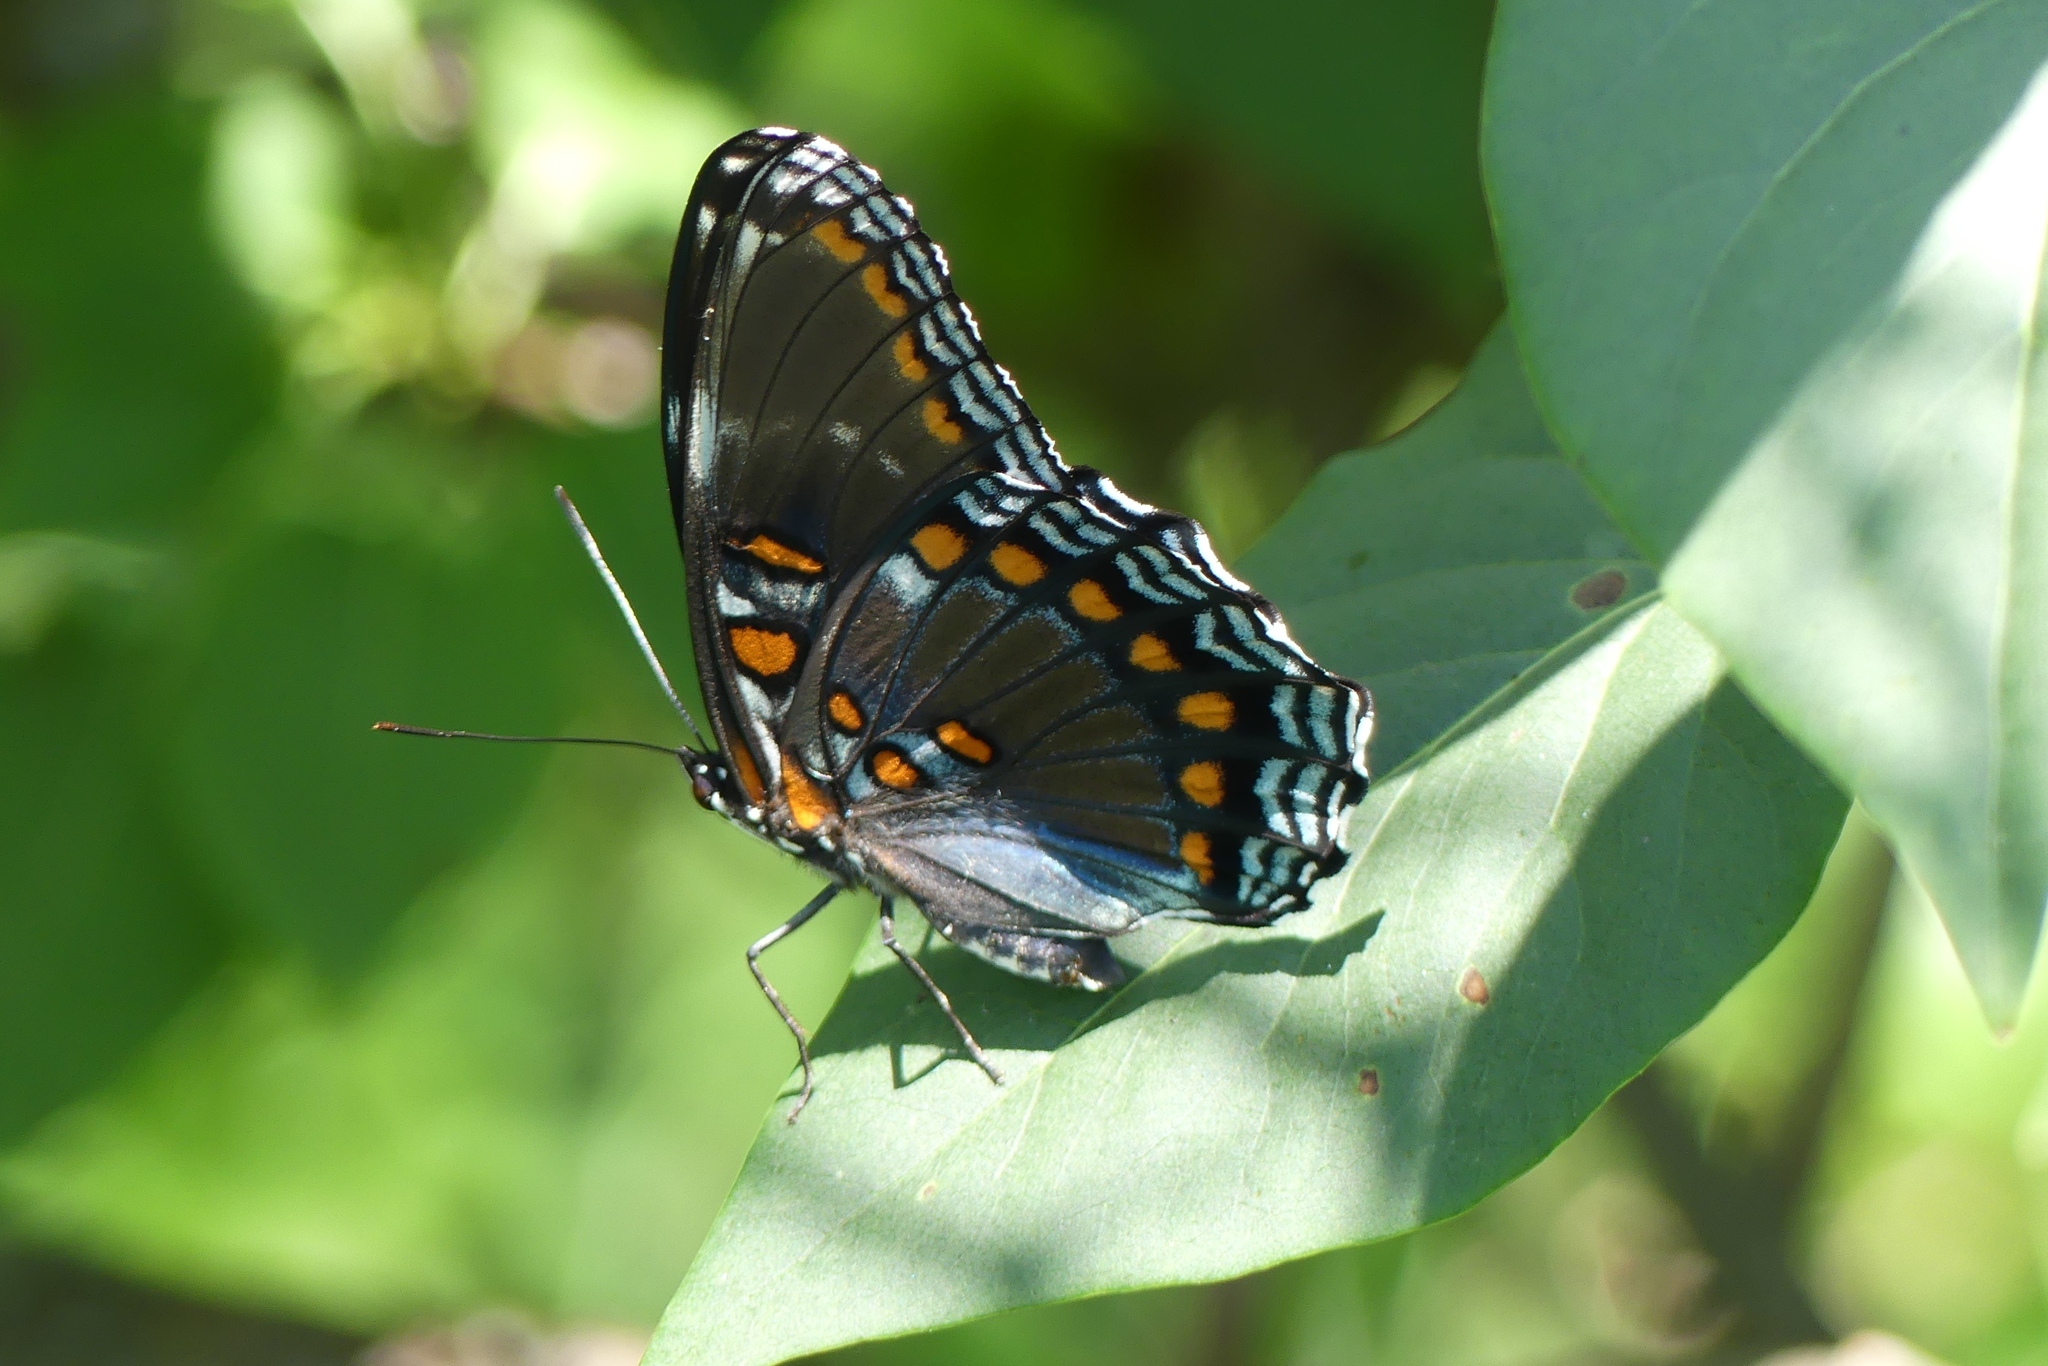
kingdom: Animalia
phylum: Arthropoda
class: Insecta
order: Lepidoptera
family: Nymphalidae
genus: Limenitis
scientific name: Limenitis astyanax
